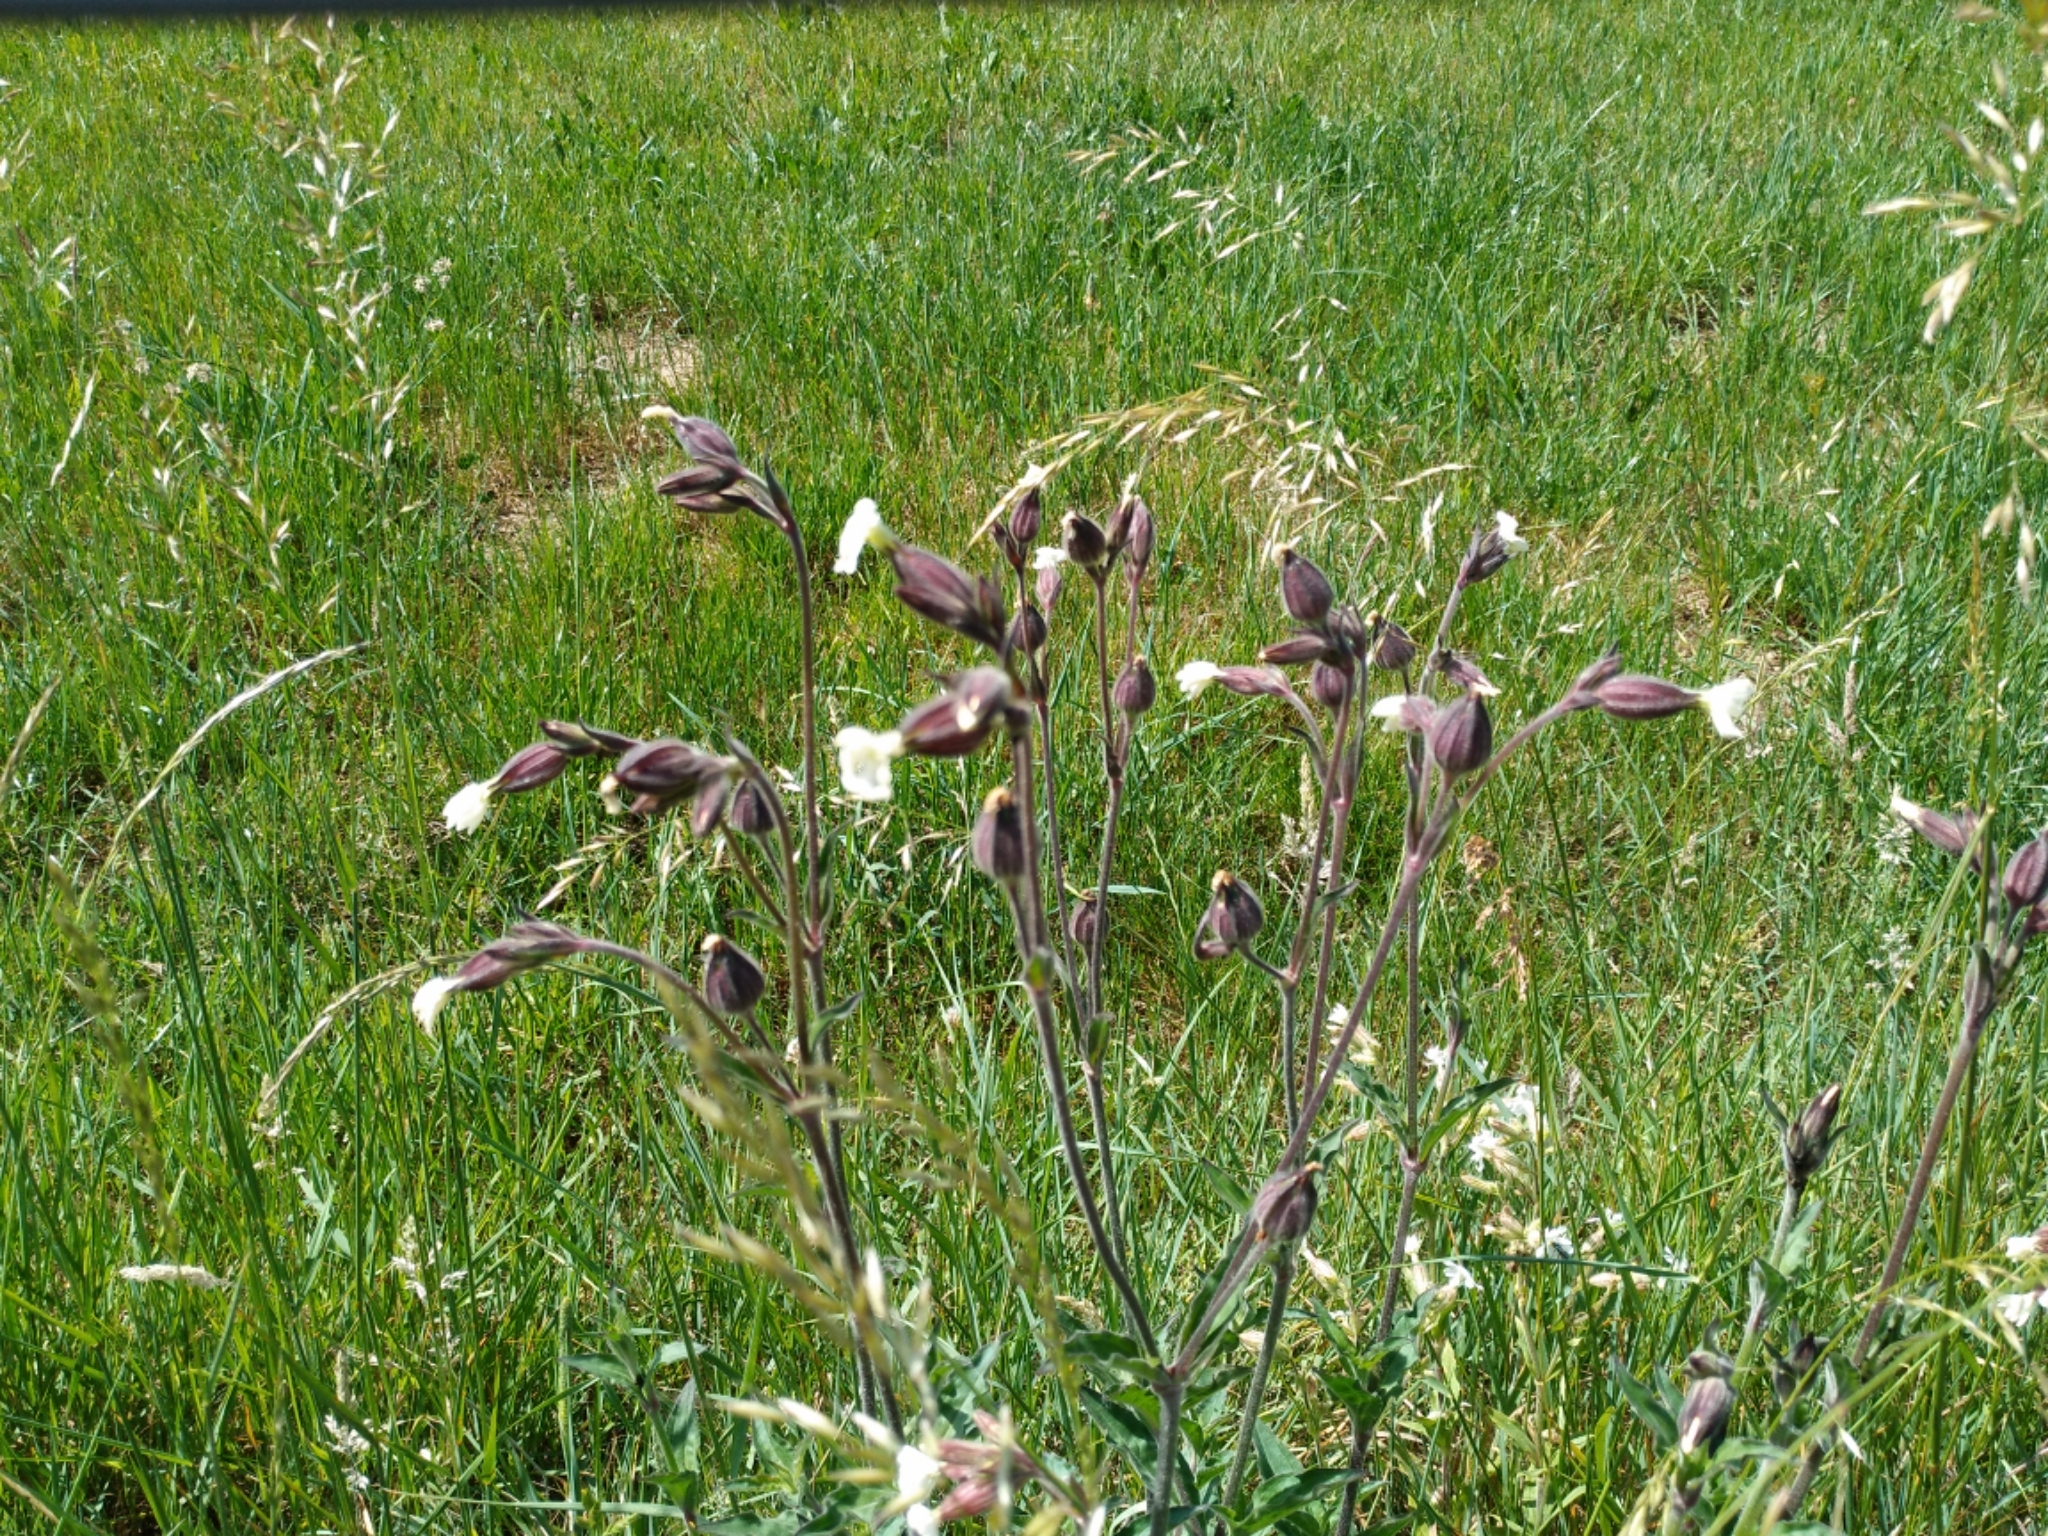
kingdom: Plantae
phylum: Tracheophyta
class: Magnoliopsida
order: Caryophyllales
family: Caryophyllaceae
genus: Silene
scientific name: Silene latifolia
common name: White campion
